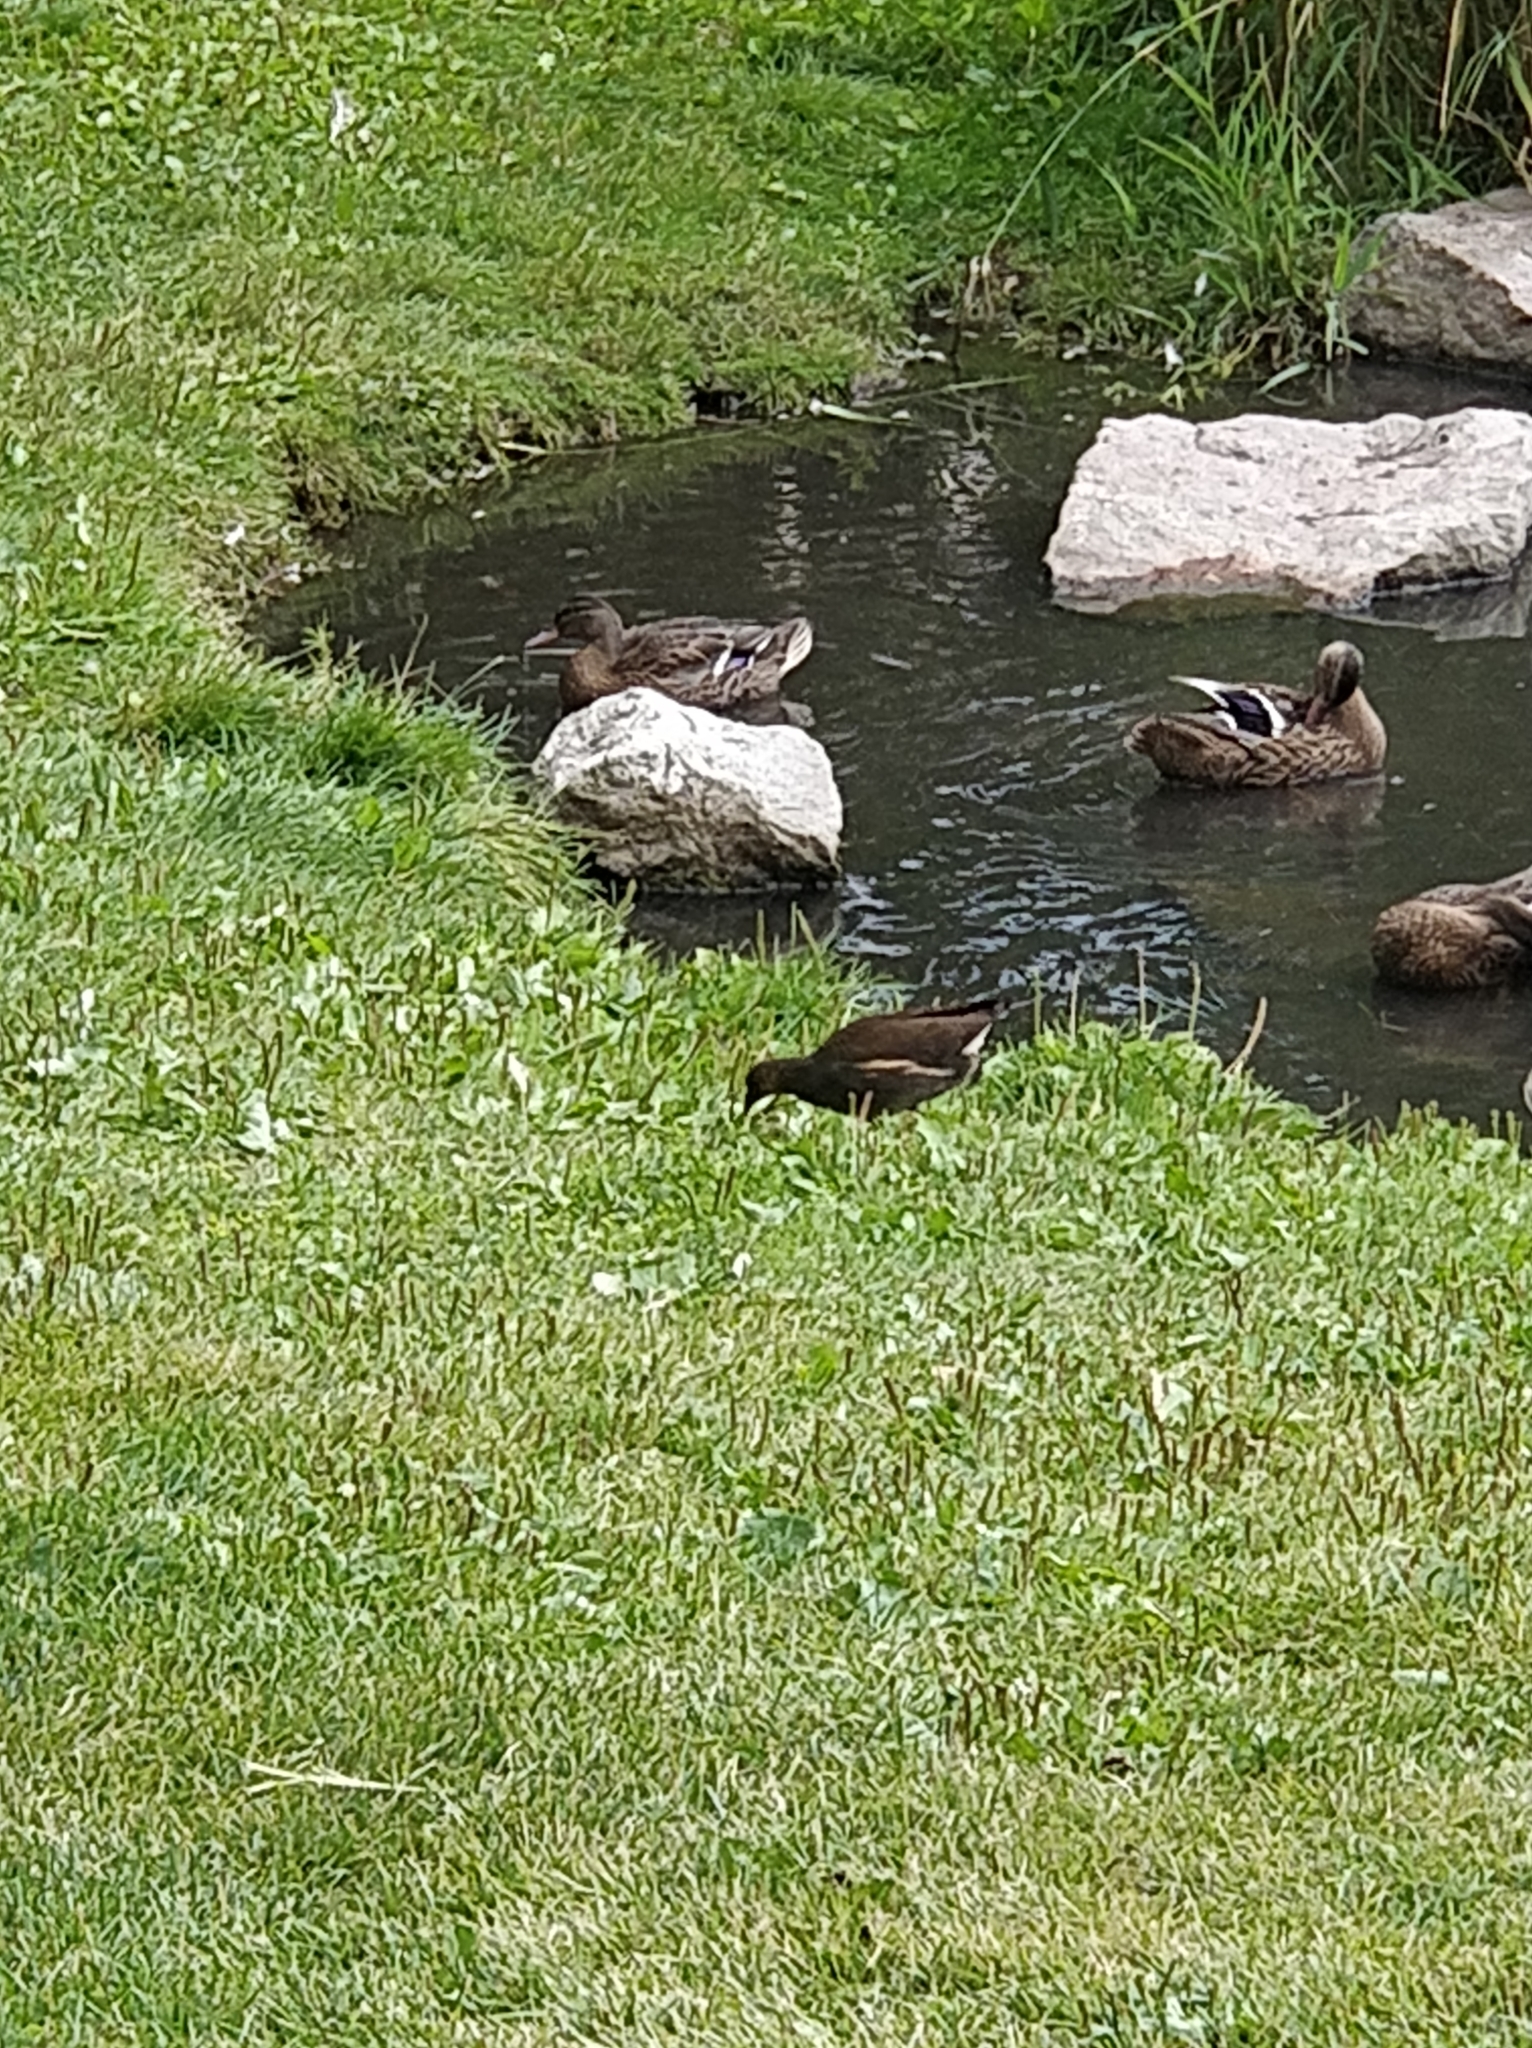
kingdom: Animalia
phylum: Chordata
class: Aves
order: Gruiformes
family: Rallidae
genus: Gallinula
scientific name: Gallinula chloropus
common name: Common moorhen
